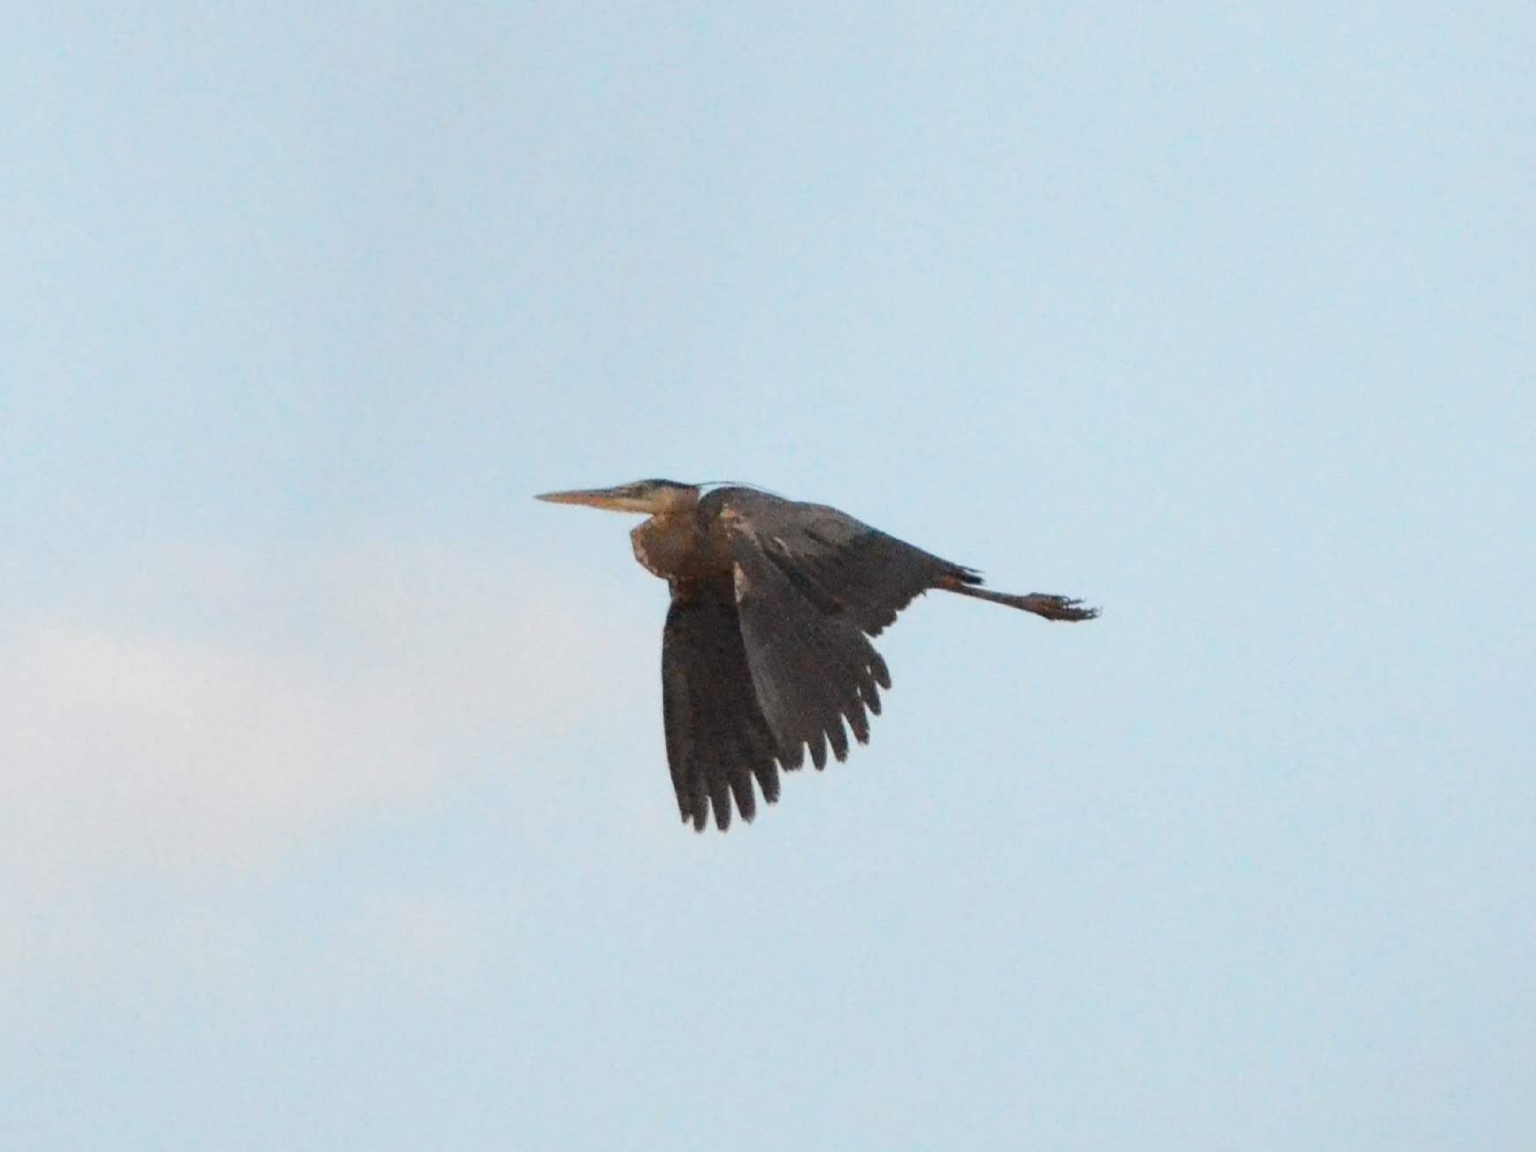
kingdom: Animalia
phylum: Chordata
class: Aves
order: Pelecaniformes
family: Ardeidae
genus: Ardea
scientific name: Ardea herodias
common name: Great blue heron
